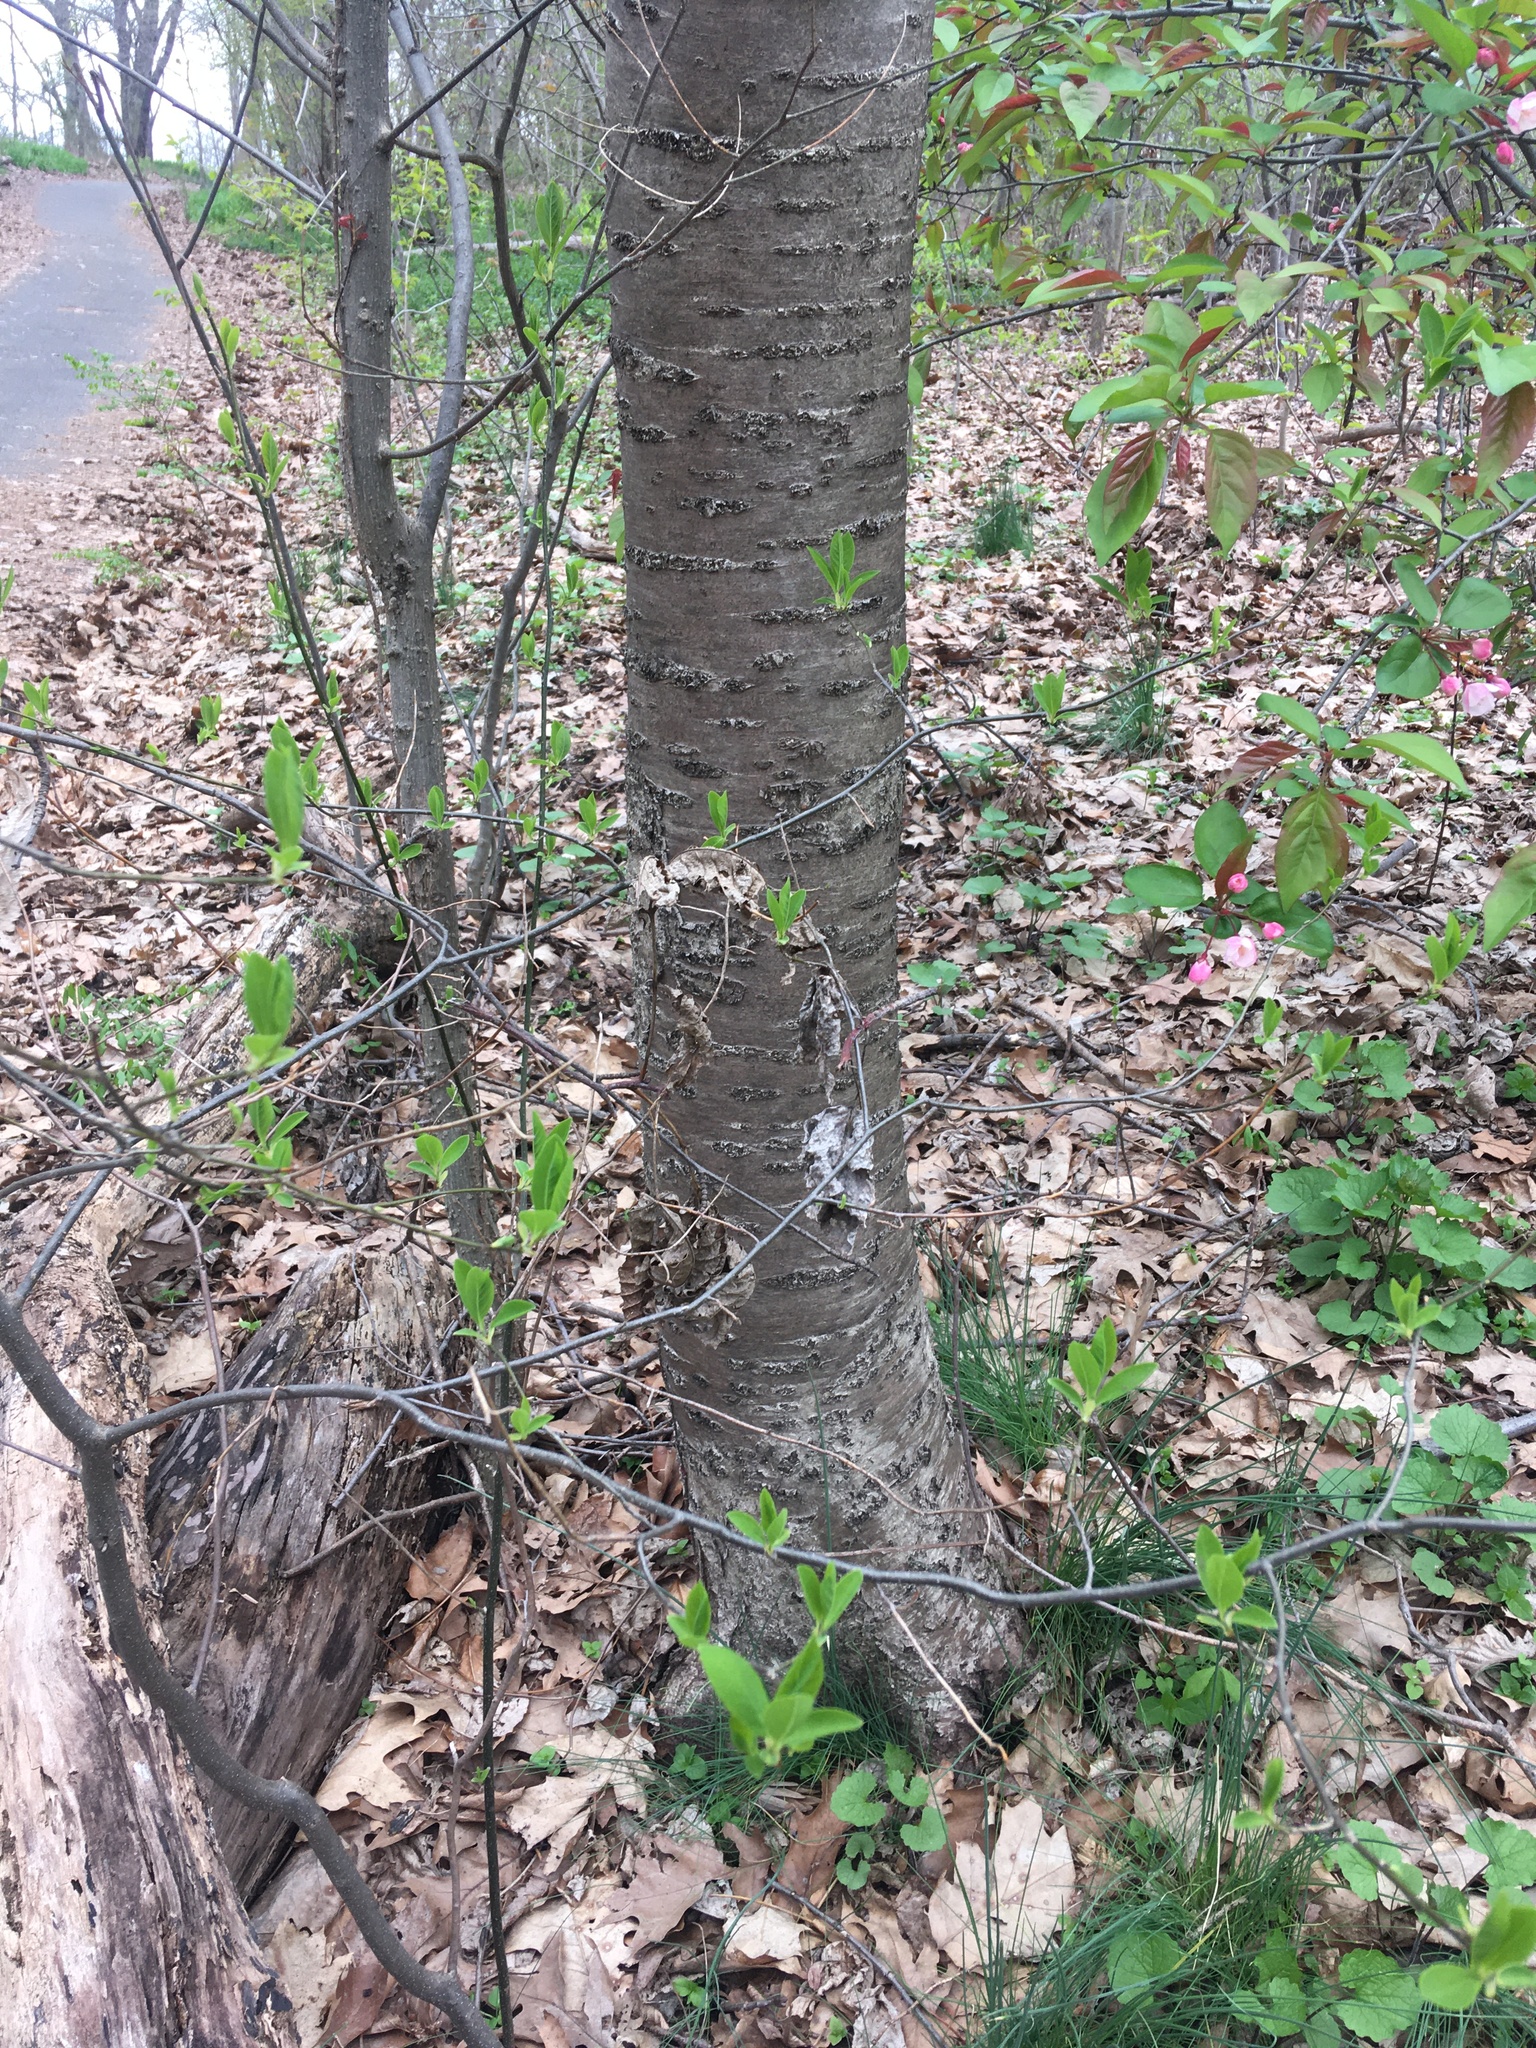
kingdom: Plantae
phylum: Tracheophyta
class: Magnoliopsida
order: Rosales
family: Rosaceae
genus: Prunus
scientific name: Prunus avium
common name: Sweet cherry
